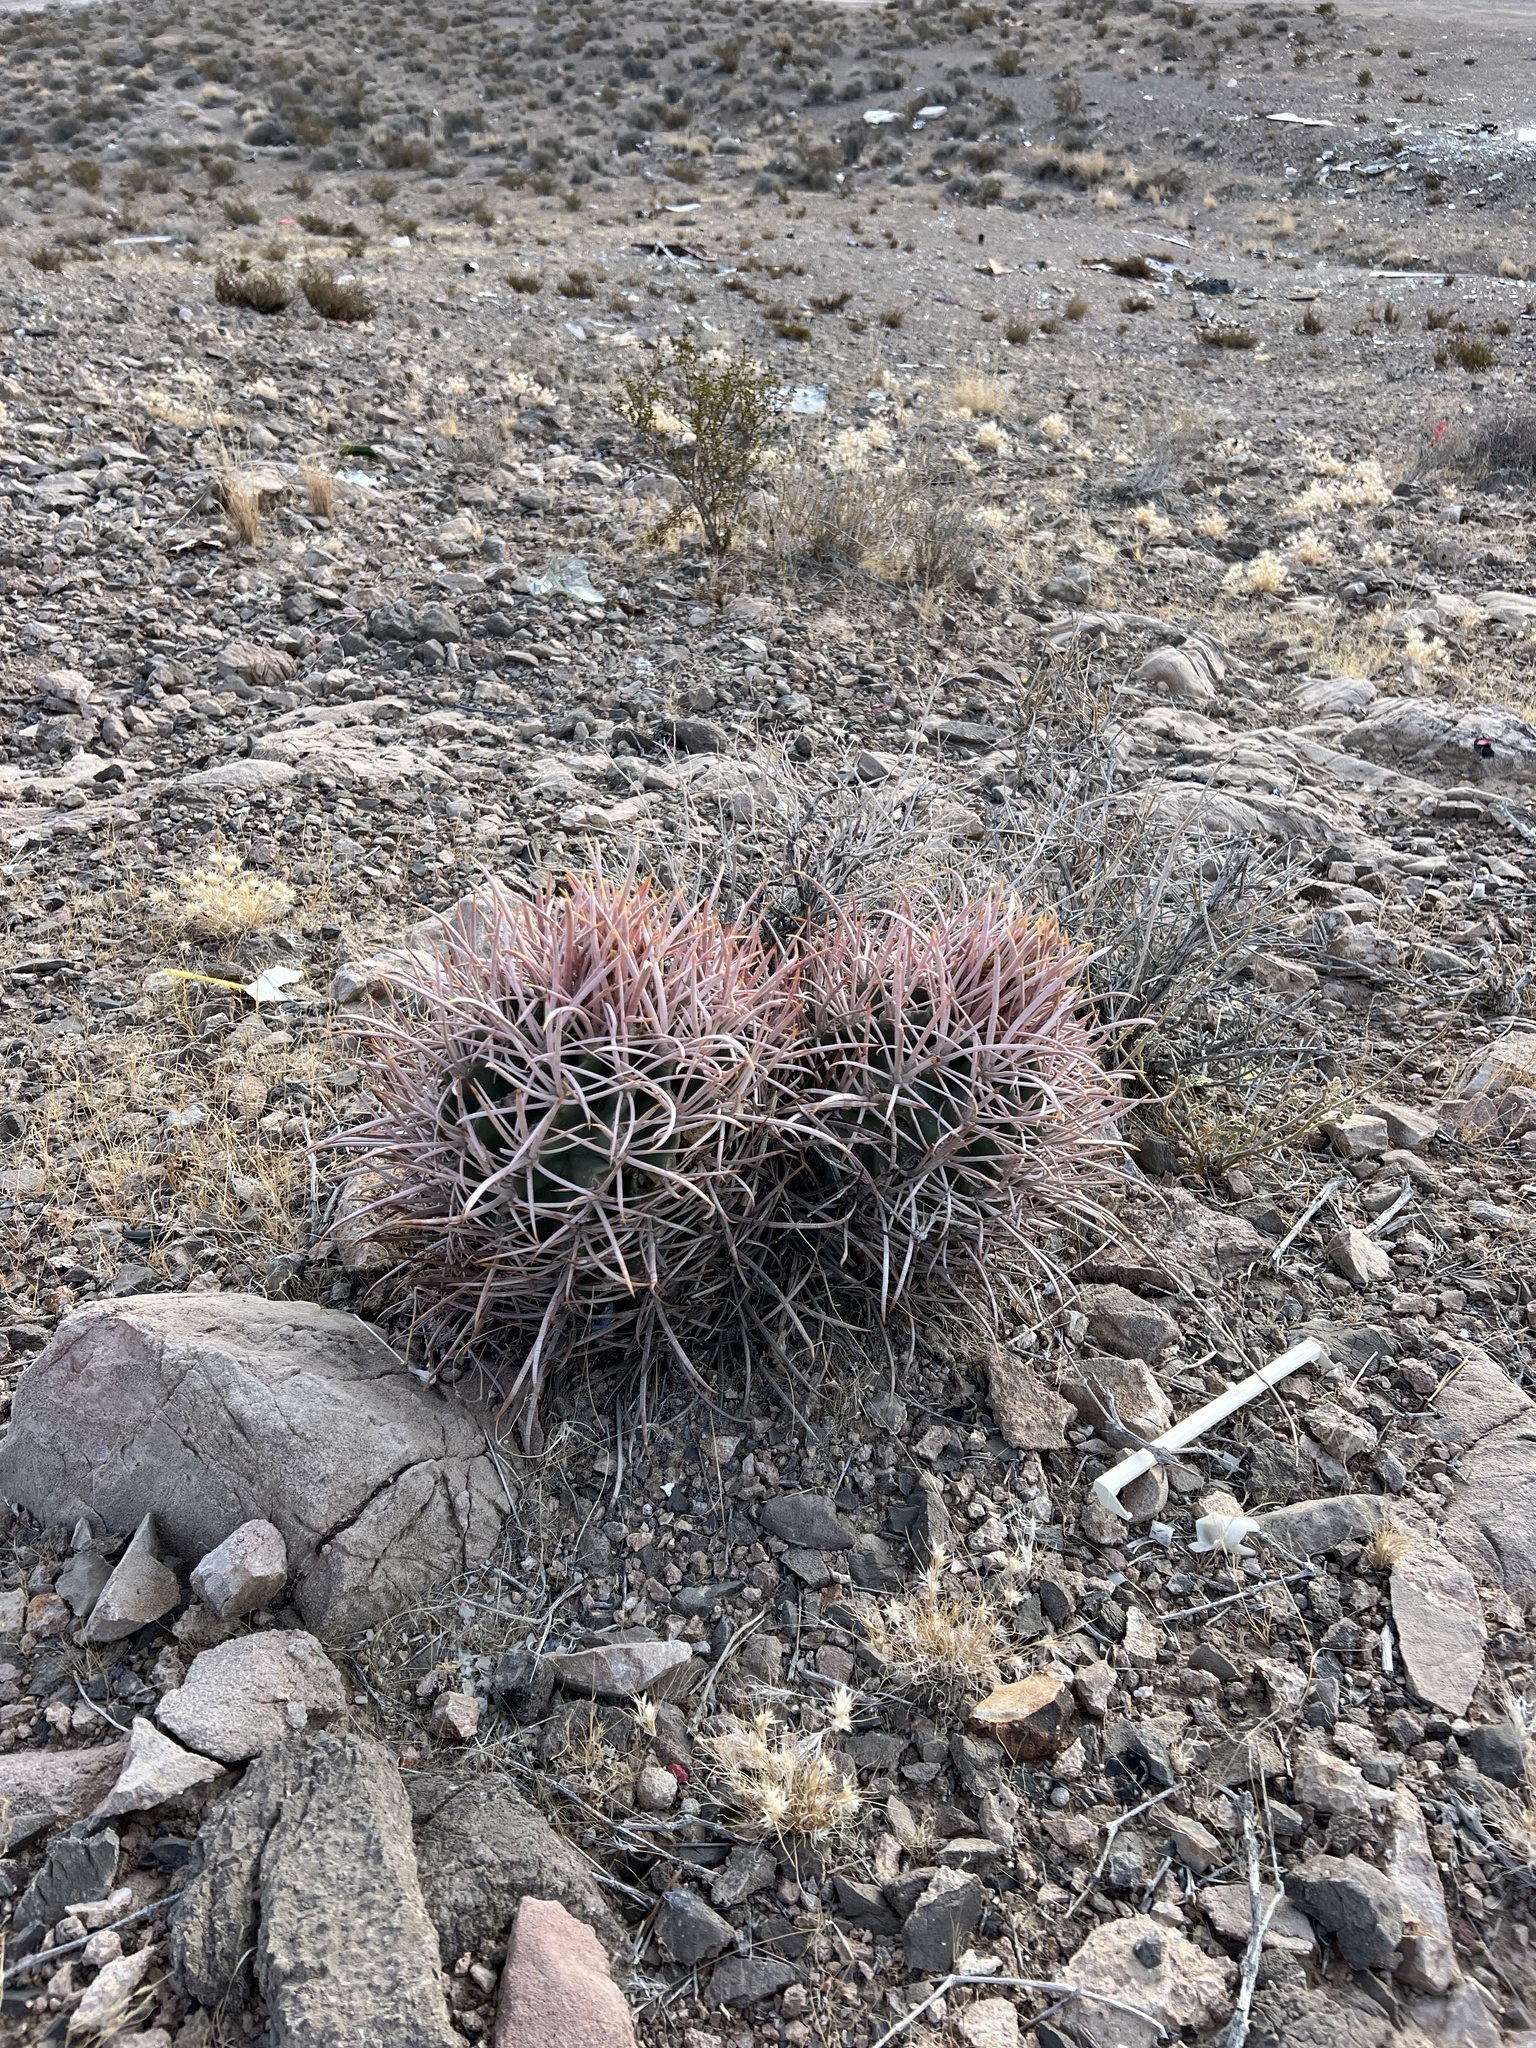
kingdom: Plantae
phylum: Tracheophyta
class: Magnoliopsida
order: Caryophyllales
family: Cactaceae
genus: Echinocactus
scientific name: Echinocactus polycephalus
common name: Cottontop cactus
